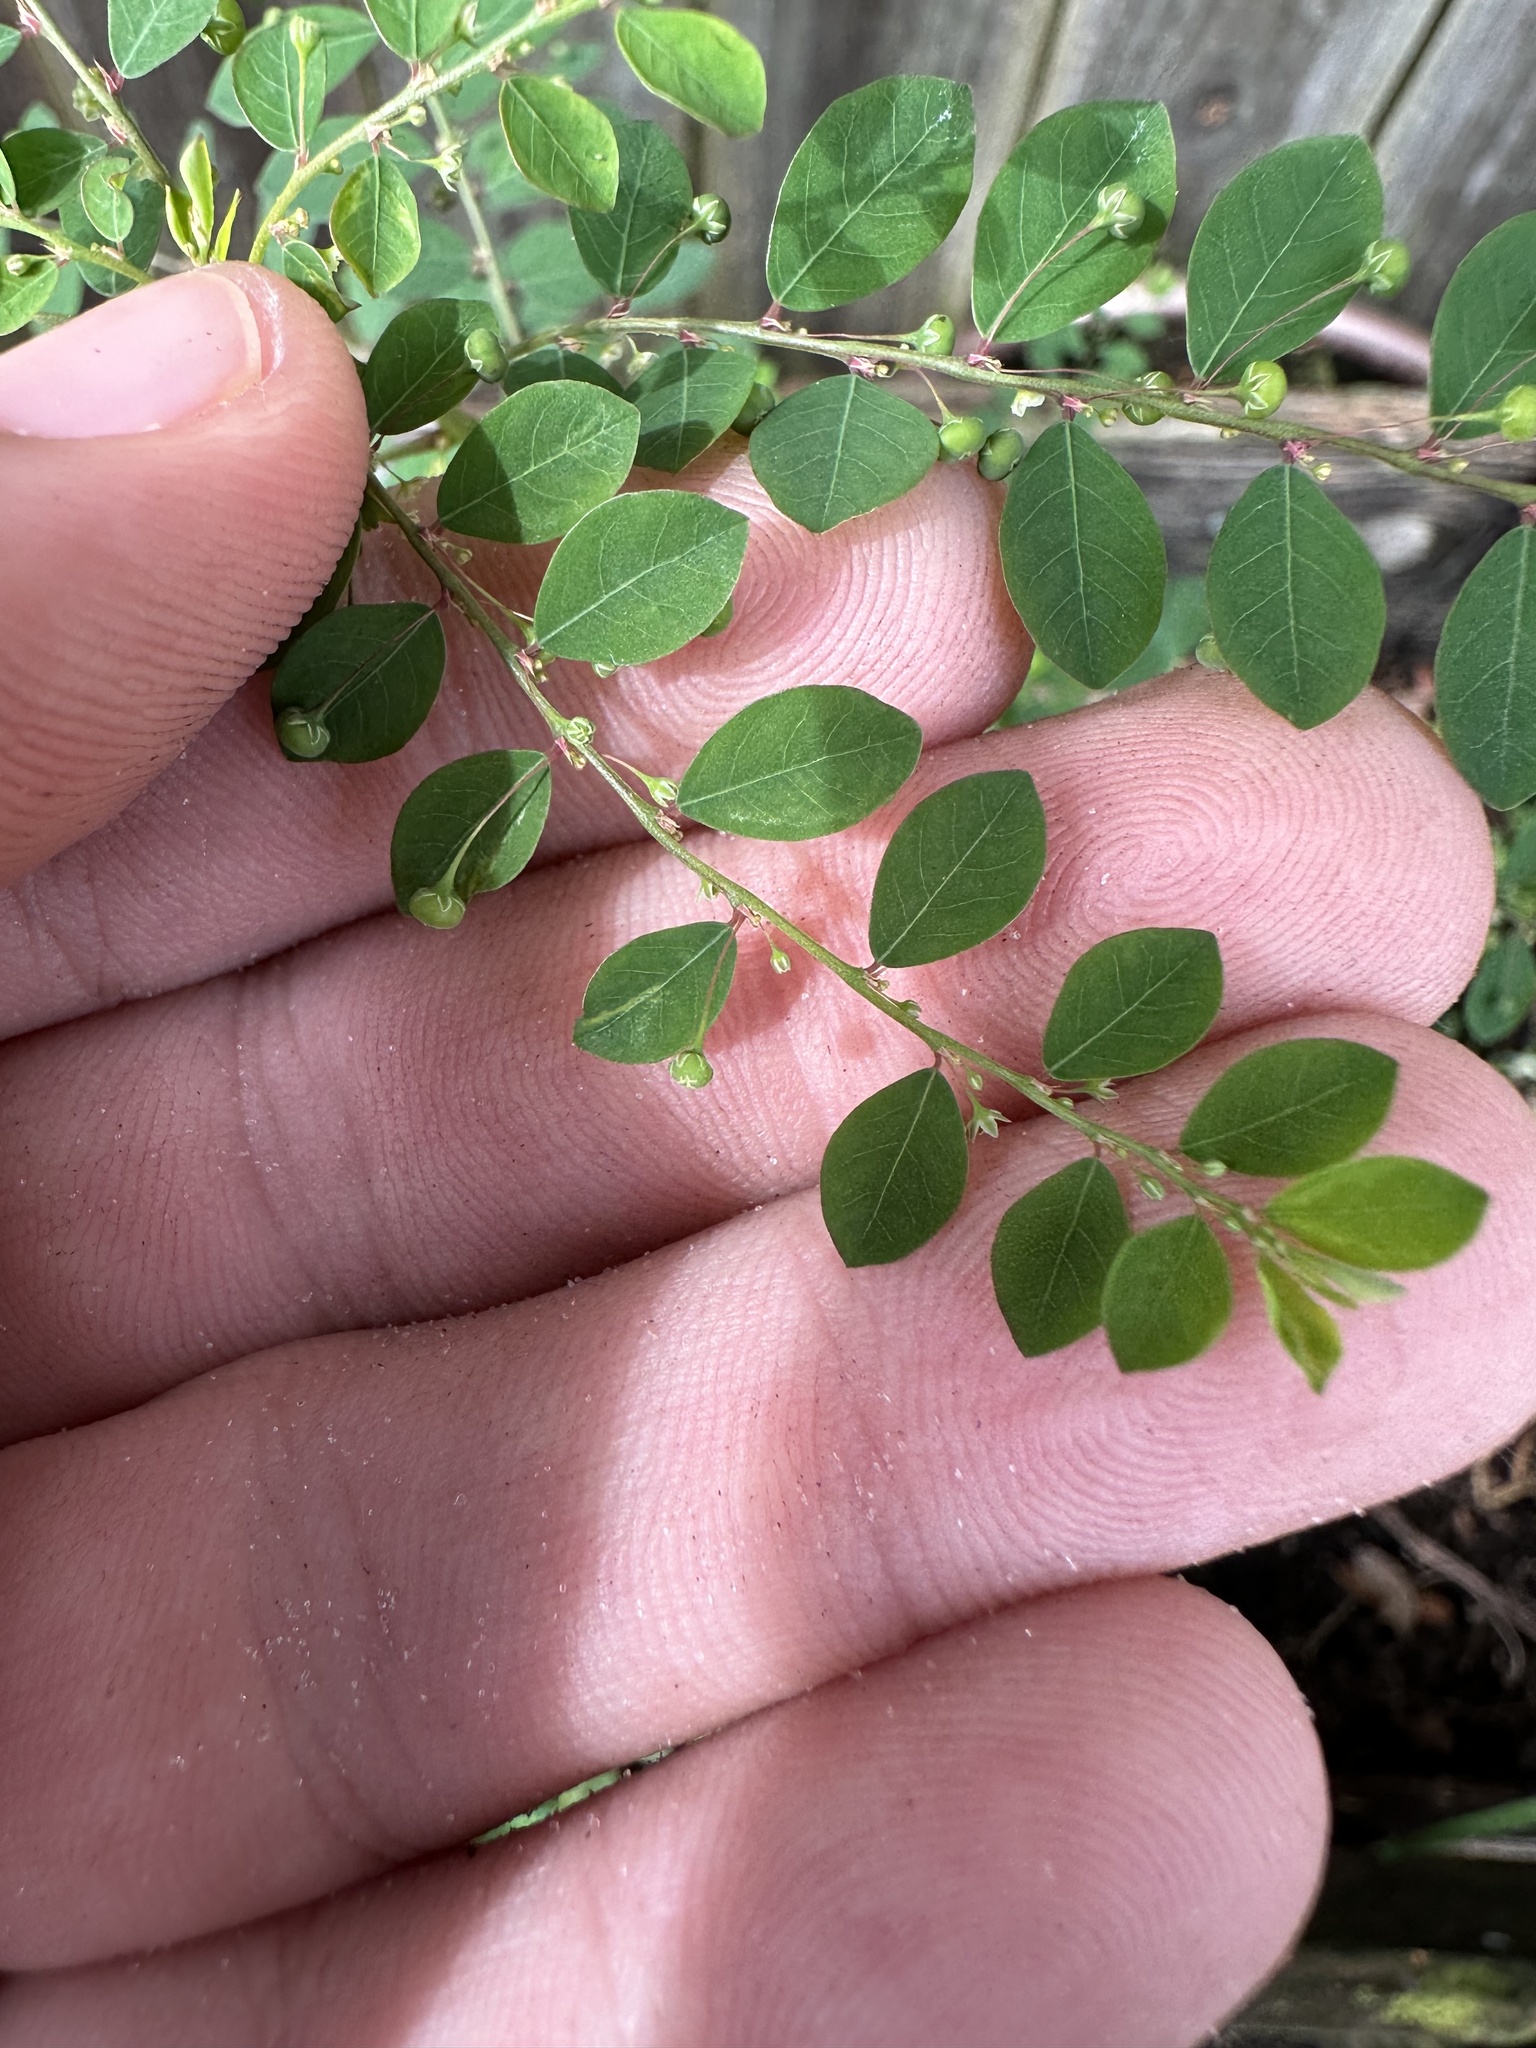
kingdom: Plantae
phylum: Tracheophyta
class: Magnoliopsida
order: Malpighiales
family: Phyllanthaceae
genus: Phyllanthus
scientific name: Phyllanthus tenellus
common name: Mascarene island leaf-flower
